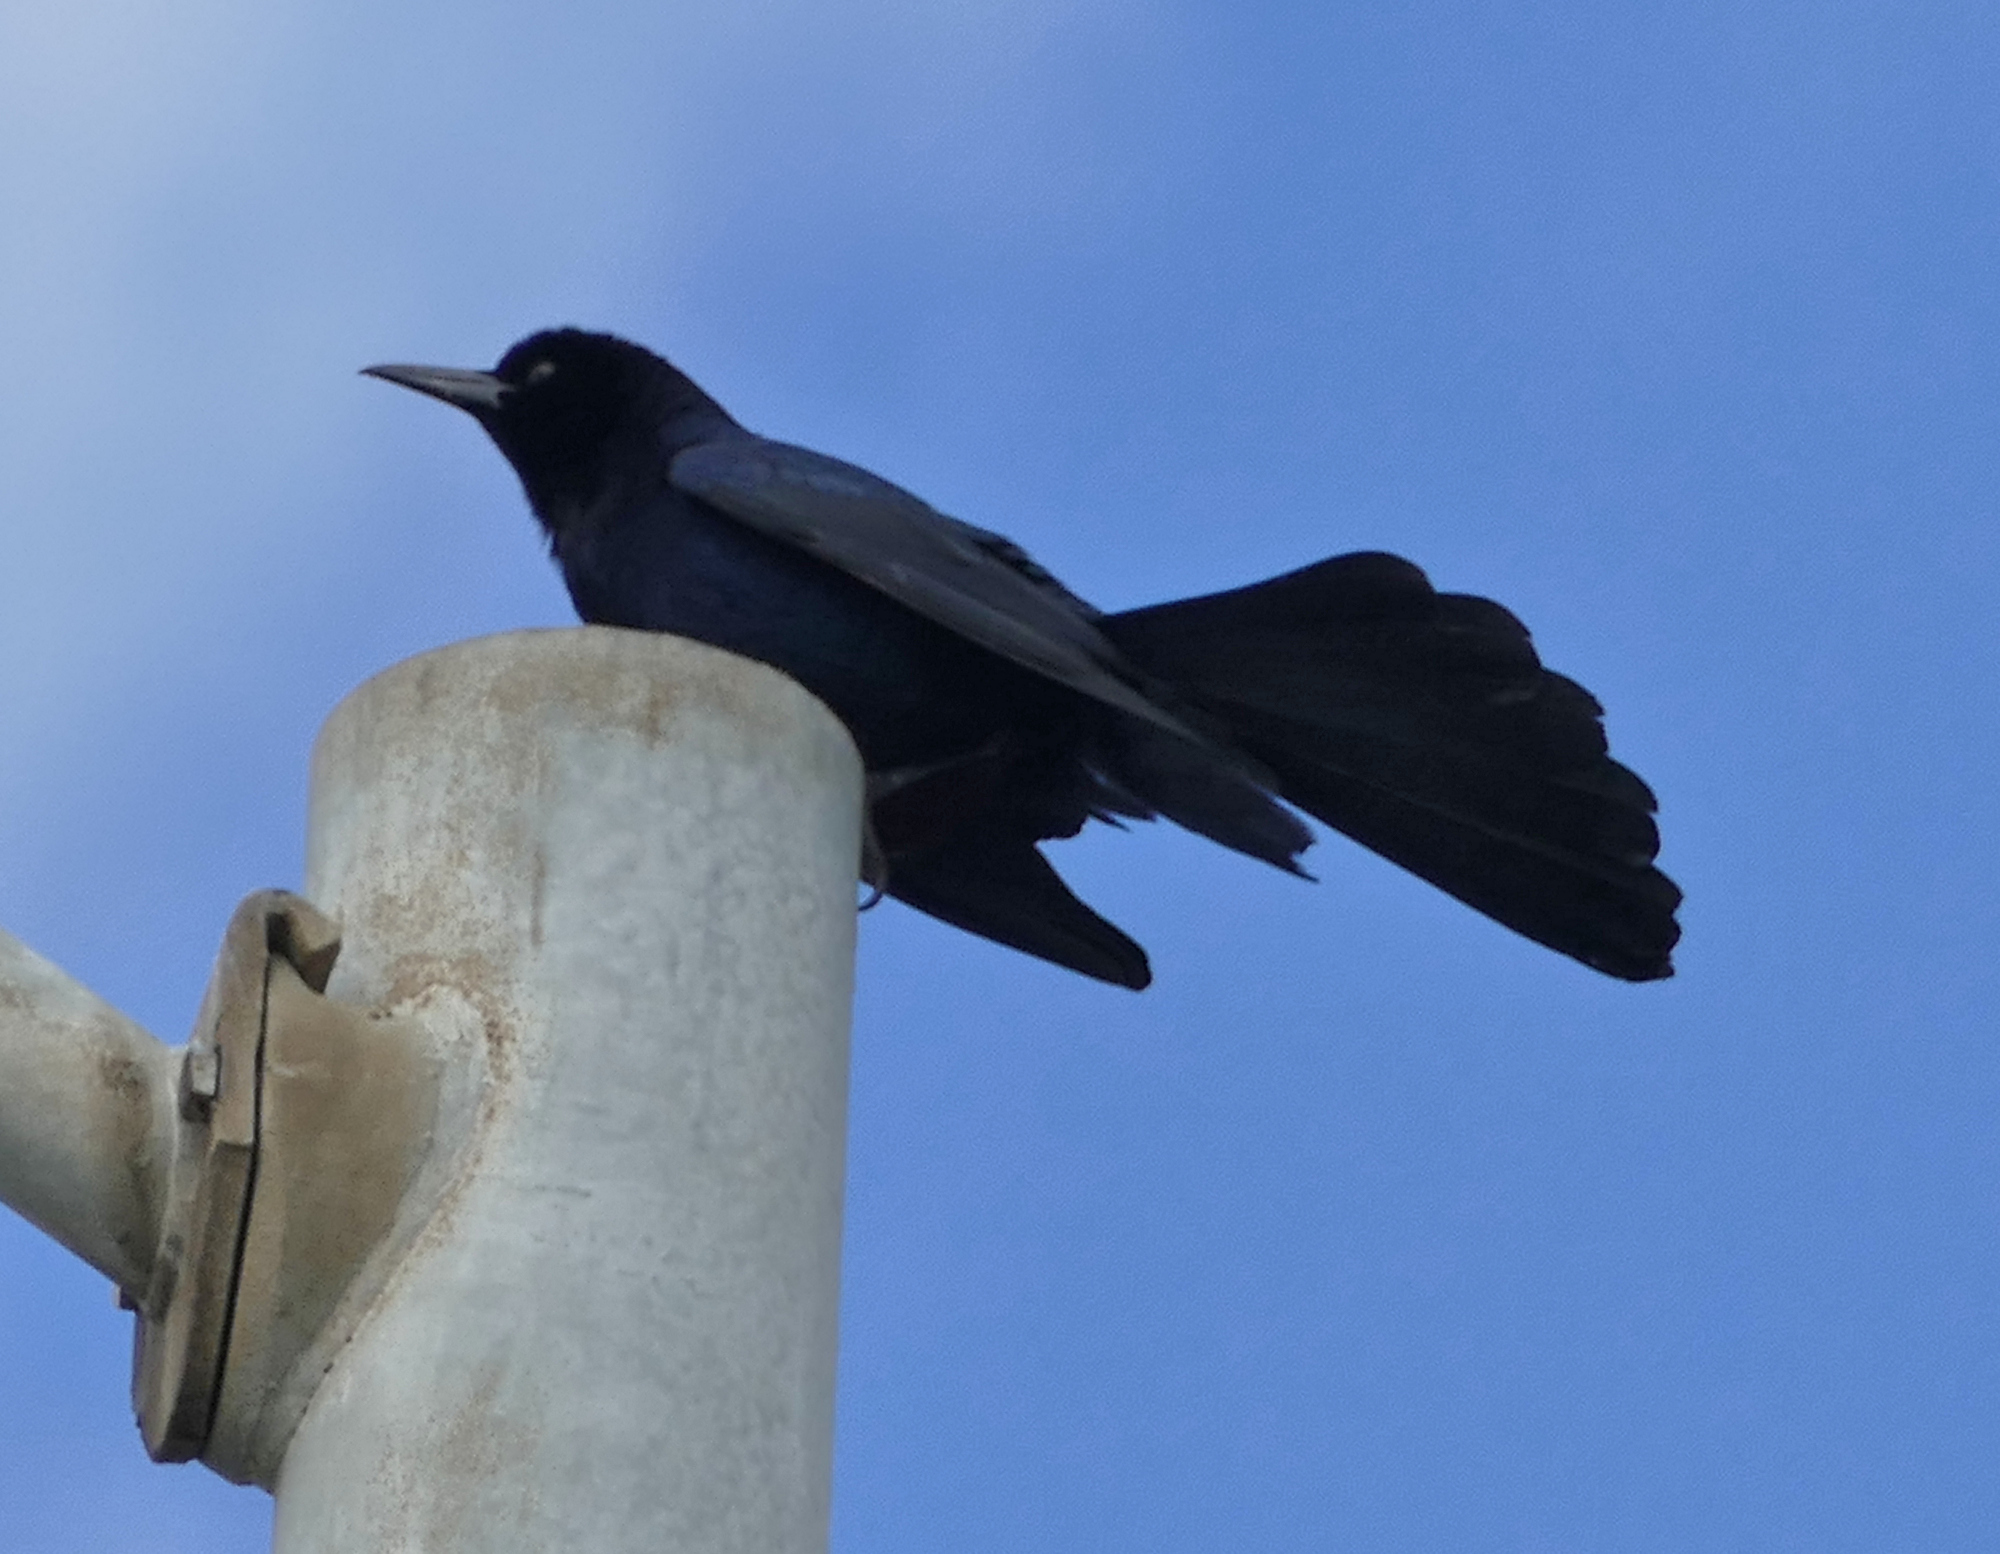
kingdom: Animalia
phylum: Chordata
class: Aves
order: Passeriformes
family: Icteridae
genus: Quiscalus
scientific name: Quiscalus major
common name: Boat-tailed grackle
